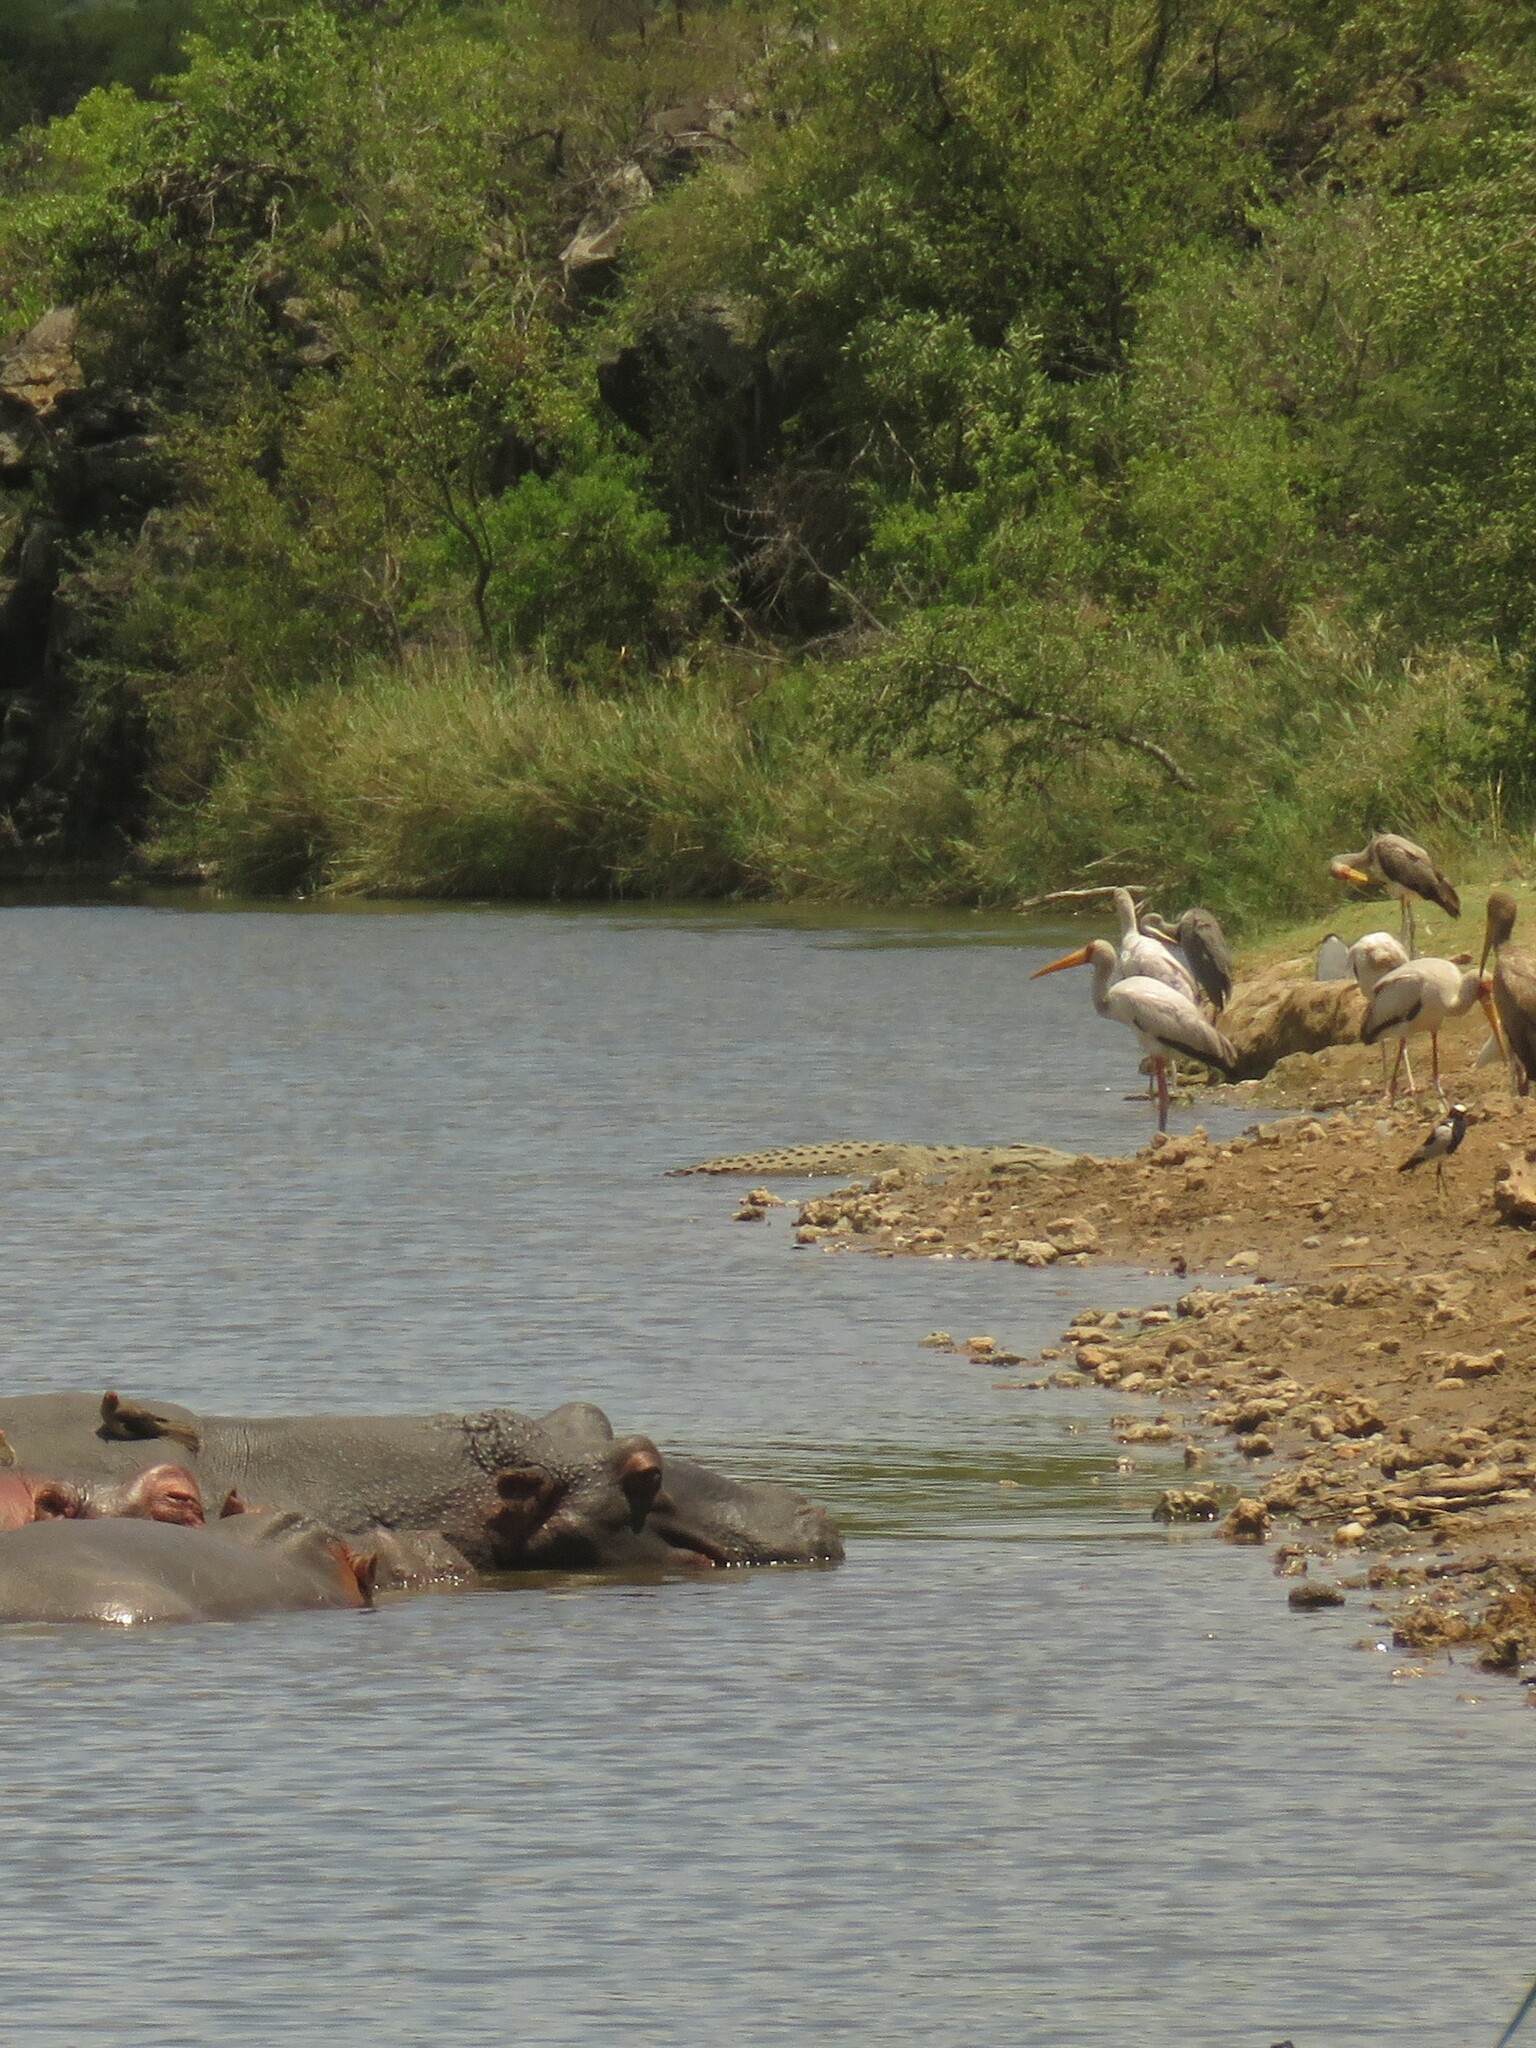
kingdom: Animalia
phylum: Chordata
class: Aves
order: Ciconiiformes
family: Ciconiidae
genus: Mycteria
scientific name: Mycteria ibis
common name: Yellow-billed stork
